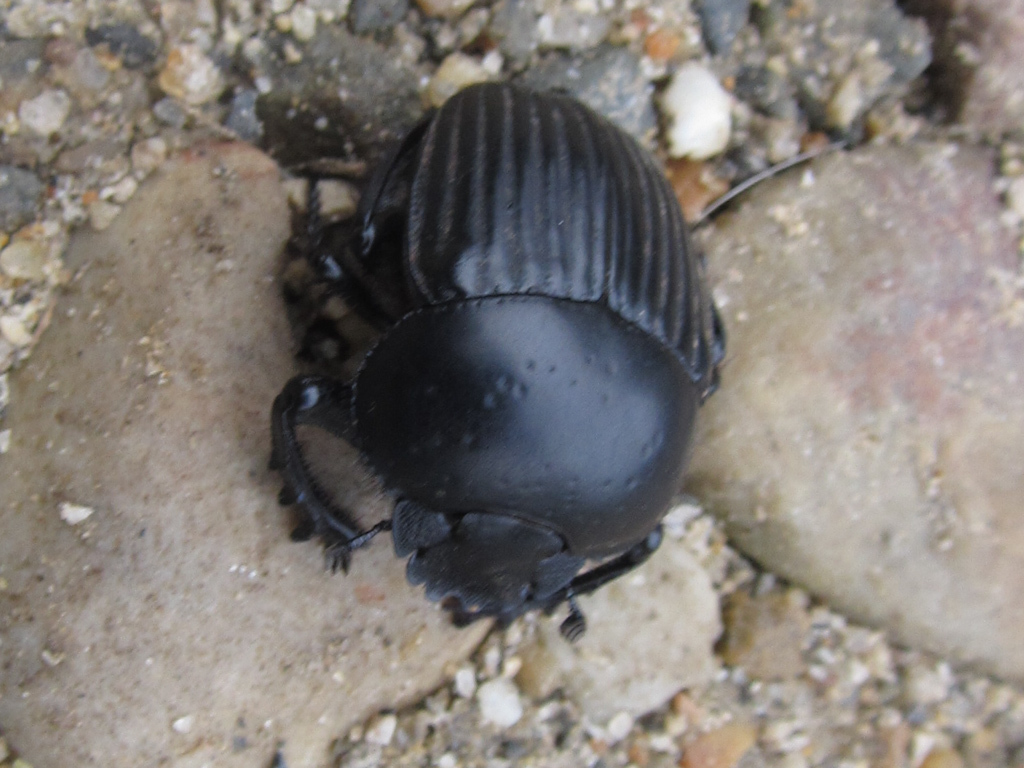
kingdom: Animalia
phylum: Arthropoda
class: Insecta
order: Coleoptera
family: Scarabaeidae
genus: Ateuchetus
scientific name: Ateuchetus laticollis
